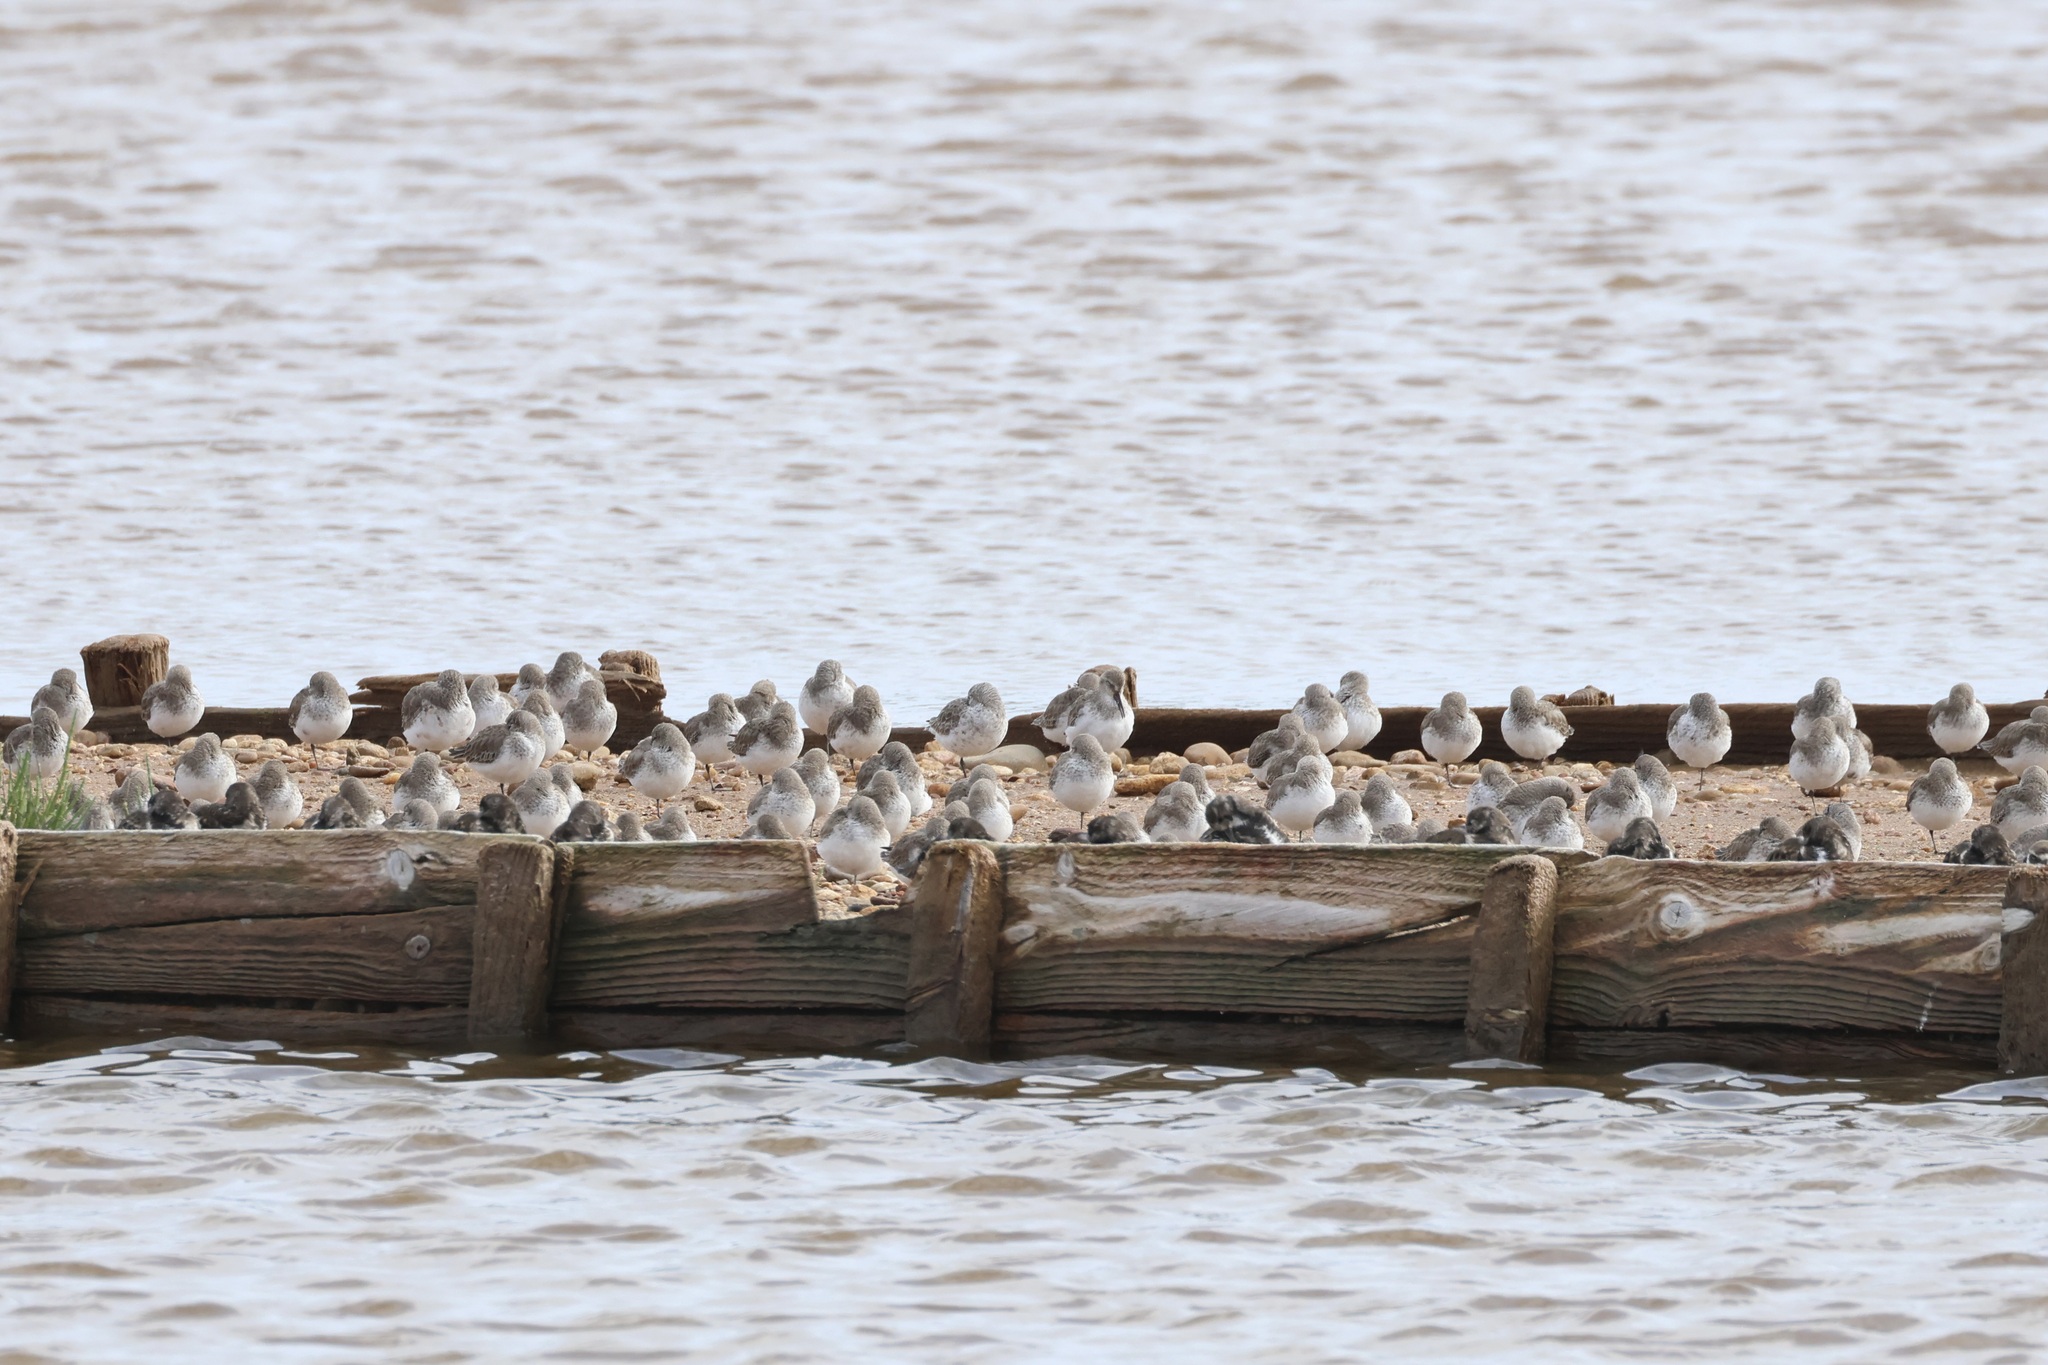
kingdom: Animalia
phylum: Chordata
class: Aves
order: Charadriiformes
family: Scolopacidae
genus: Calidris
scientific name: Calidris alpina
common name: Dunlin
